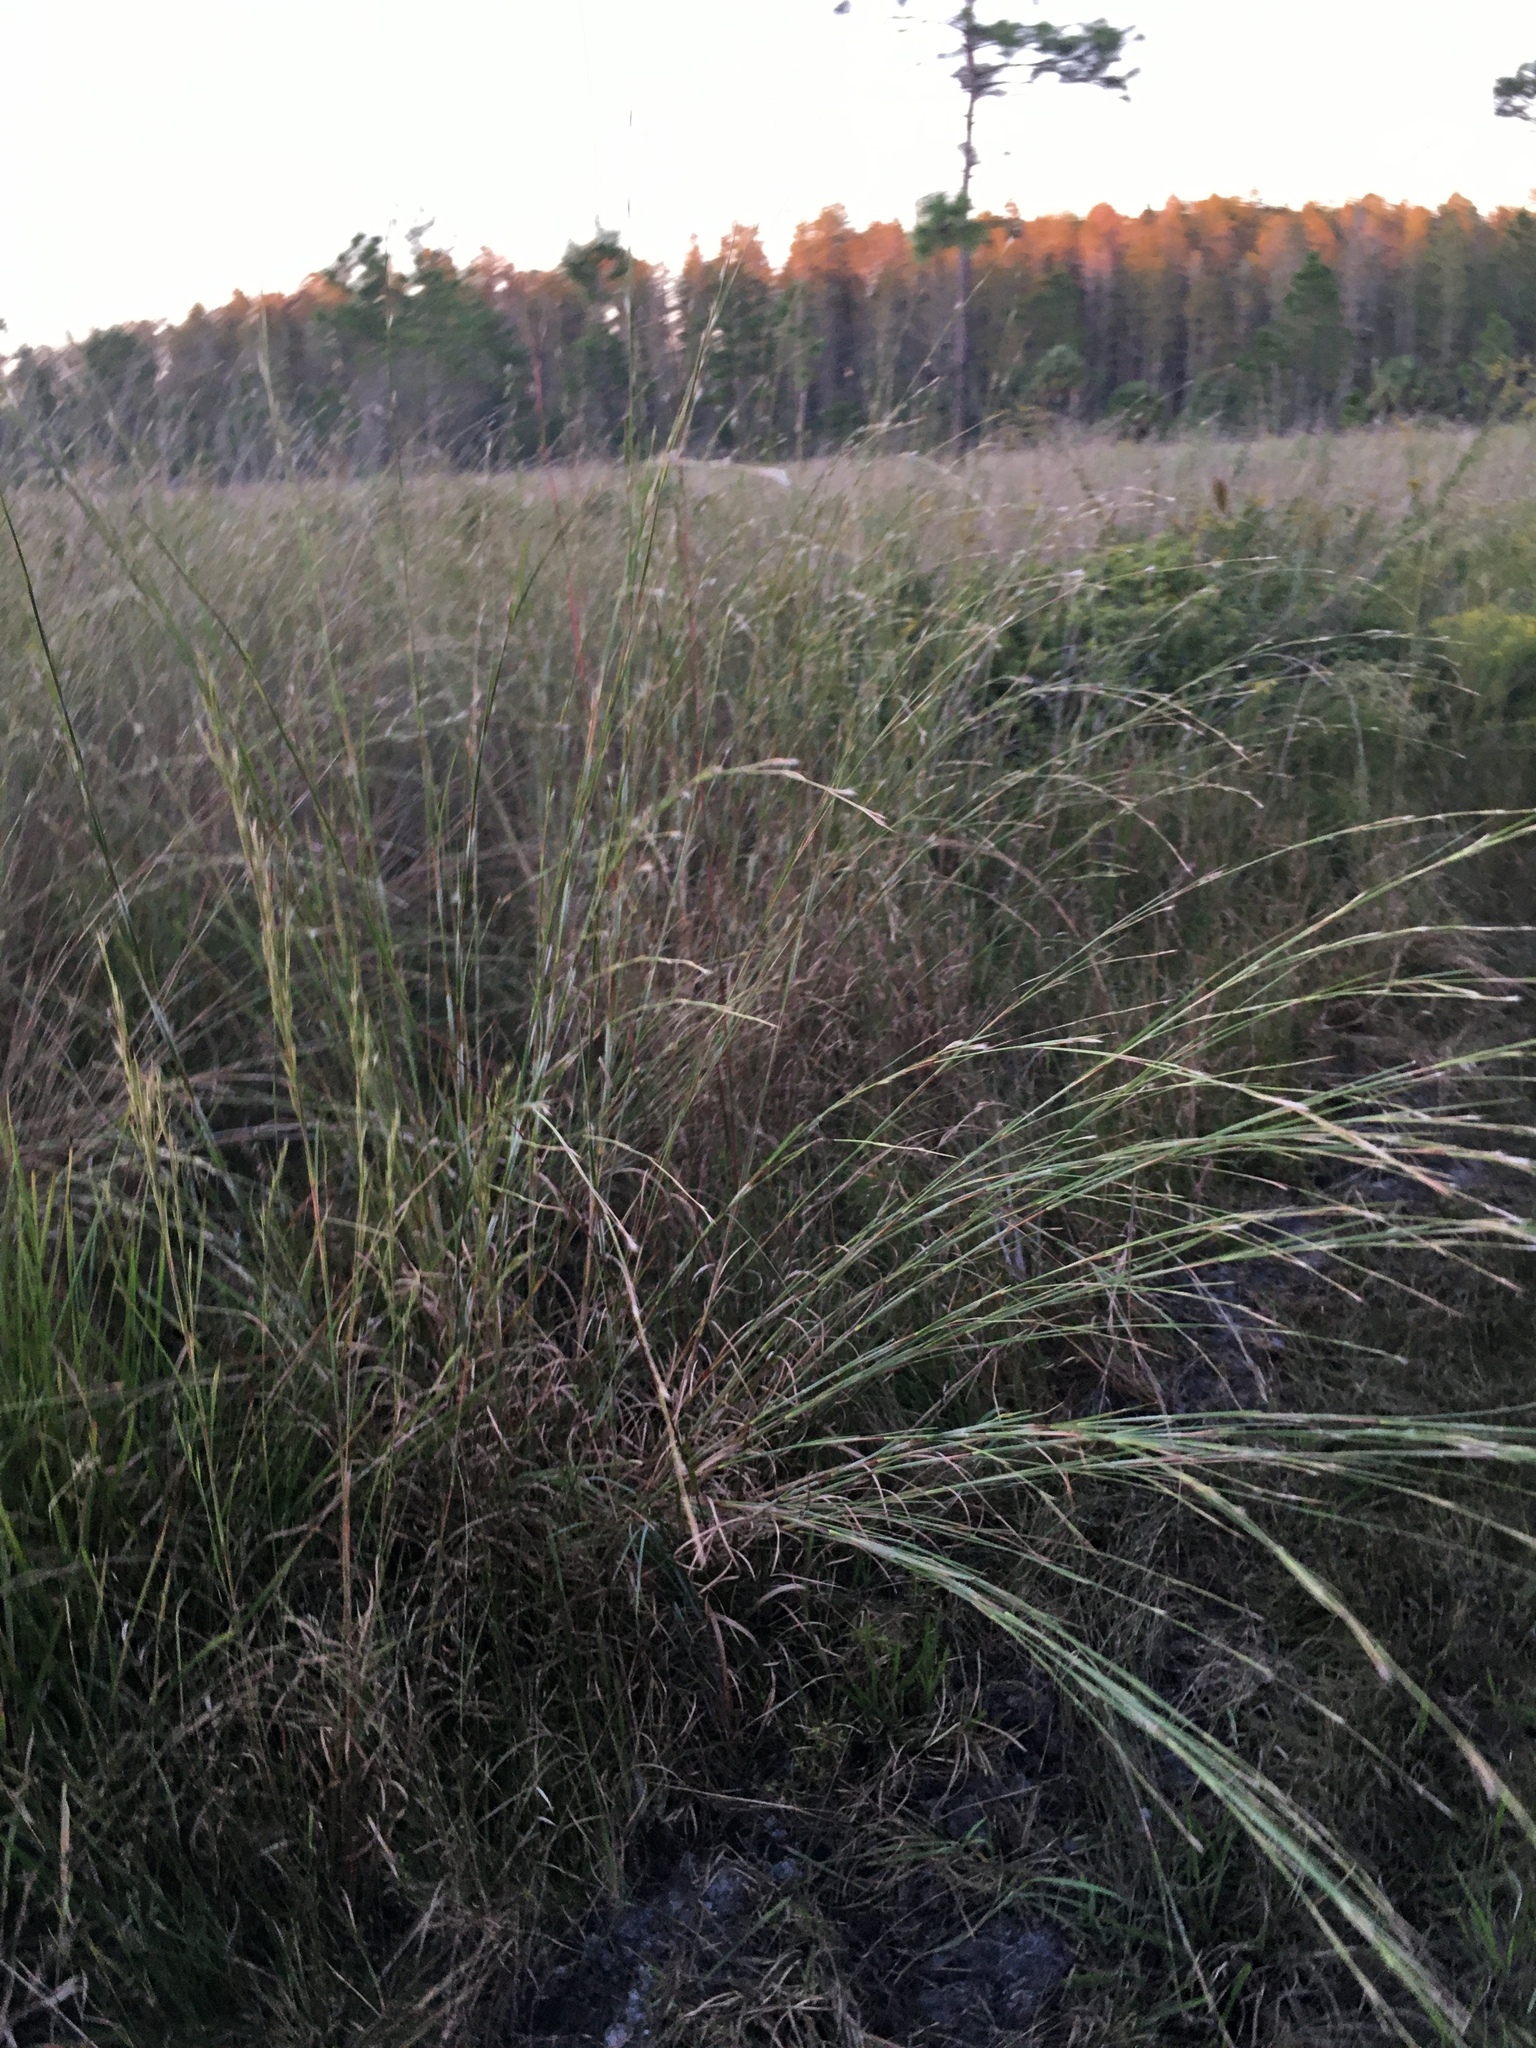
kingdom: Plantae
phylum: Tracheophyta
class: Liliopsida
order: Poales
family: Poaceae
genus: Andropogon
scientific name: Andropogon virginicus
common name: Broomsedge bluestem
